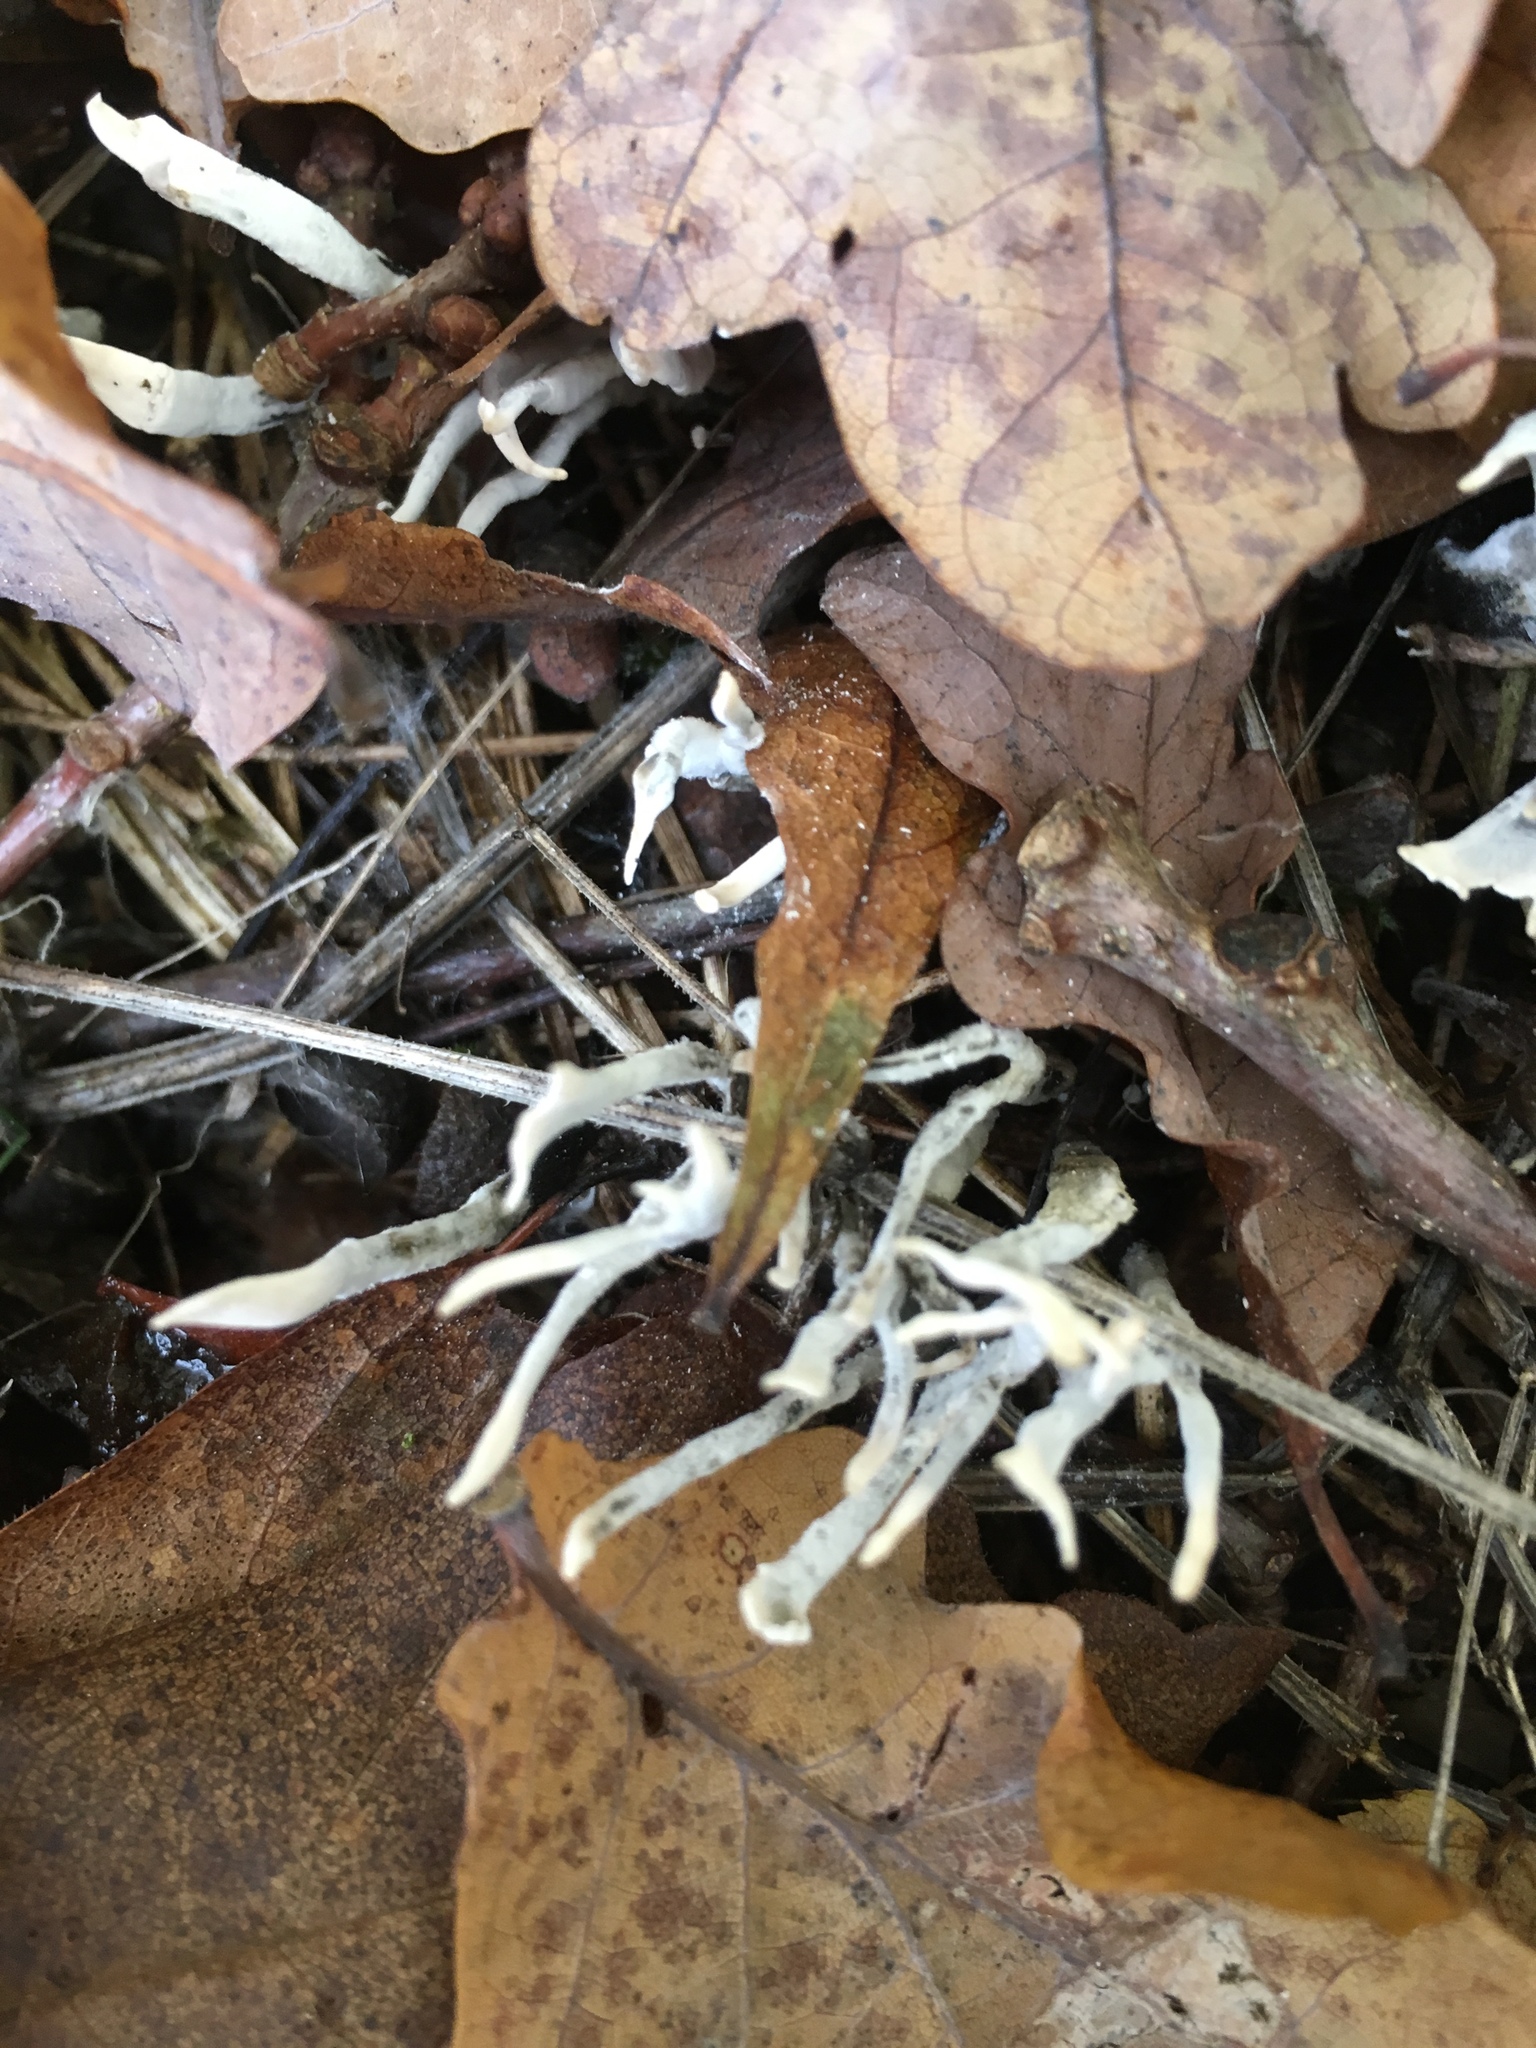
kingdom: Fungi
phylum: Ascomycota
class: Sordariomycetes
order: Xylariales
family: Xylariaceae
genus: Xylaria
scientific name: Xylaria hypoxylon
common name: Candle-snuff fungus
